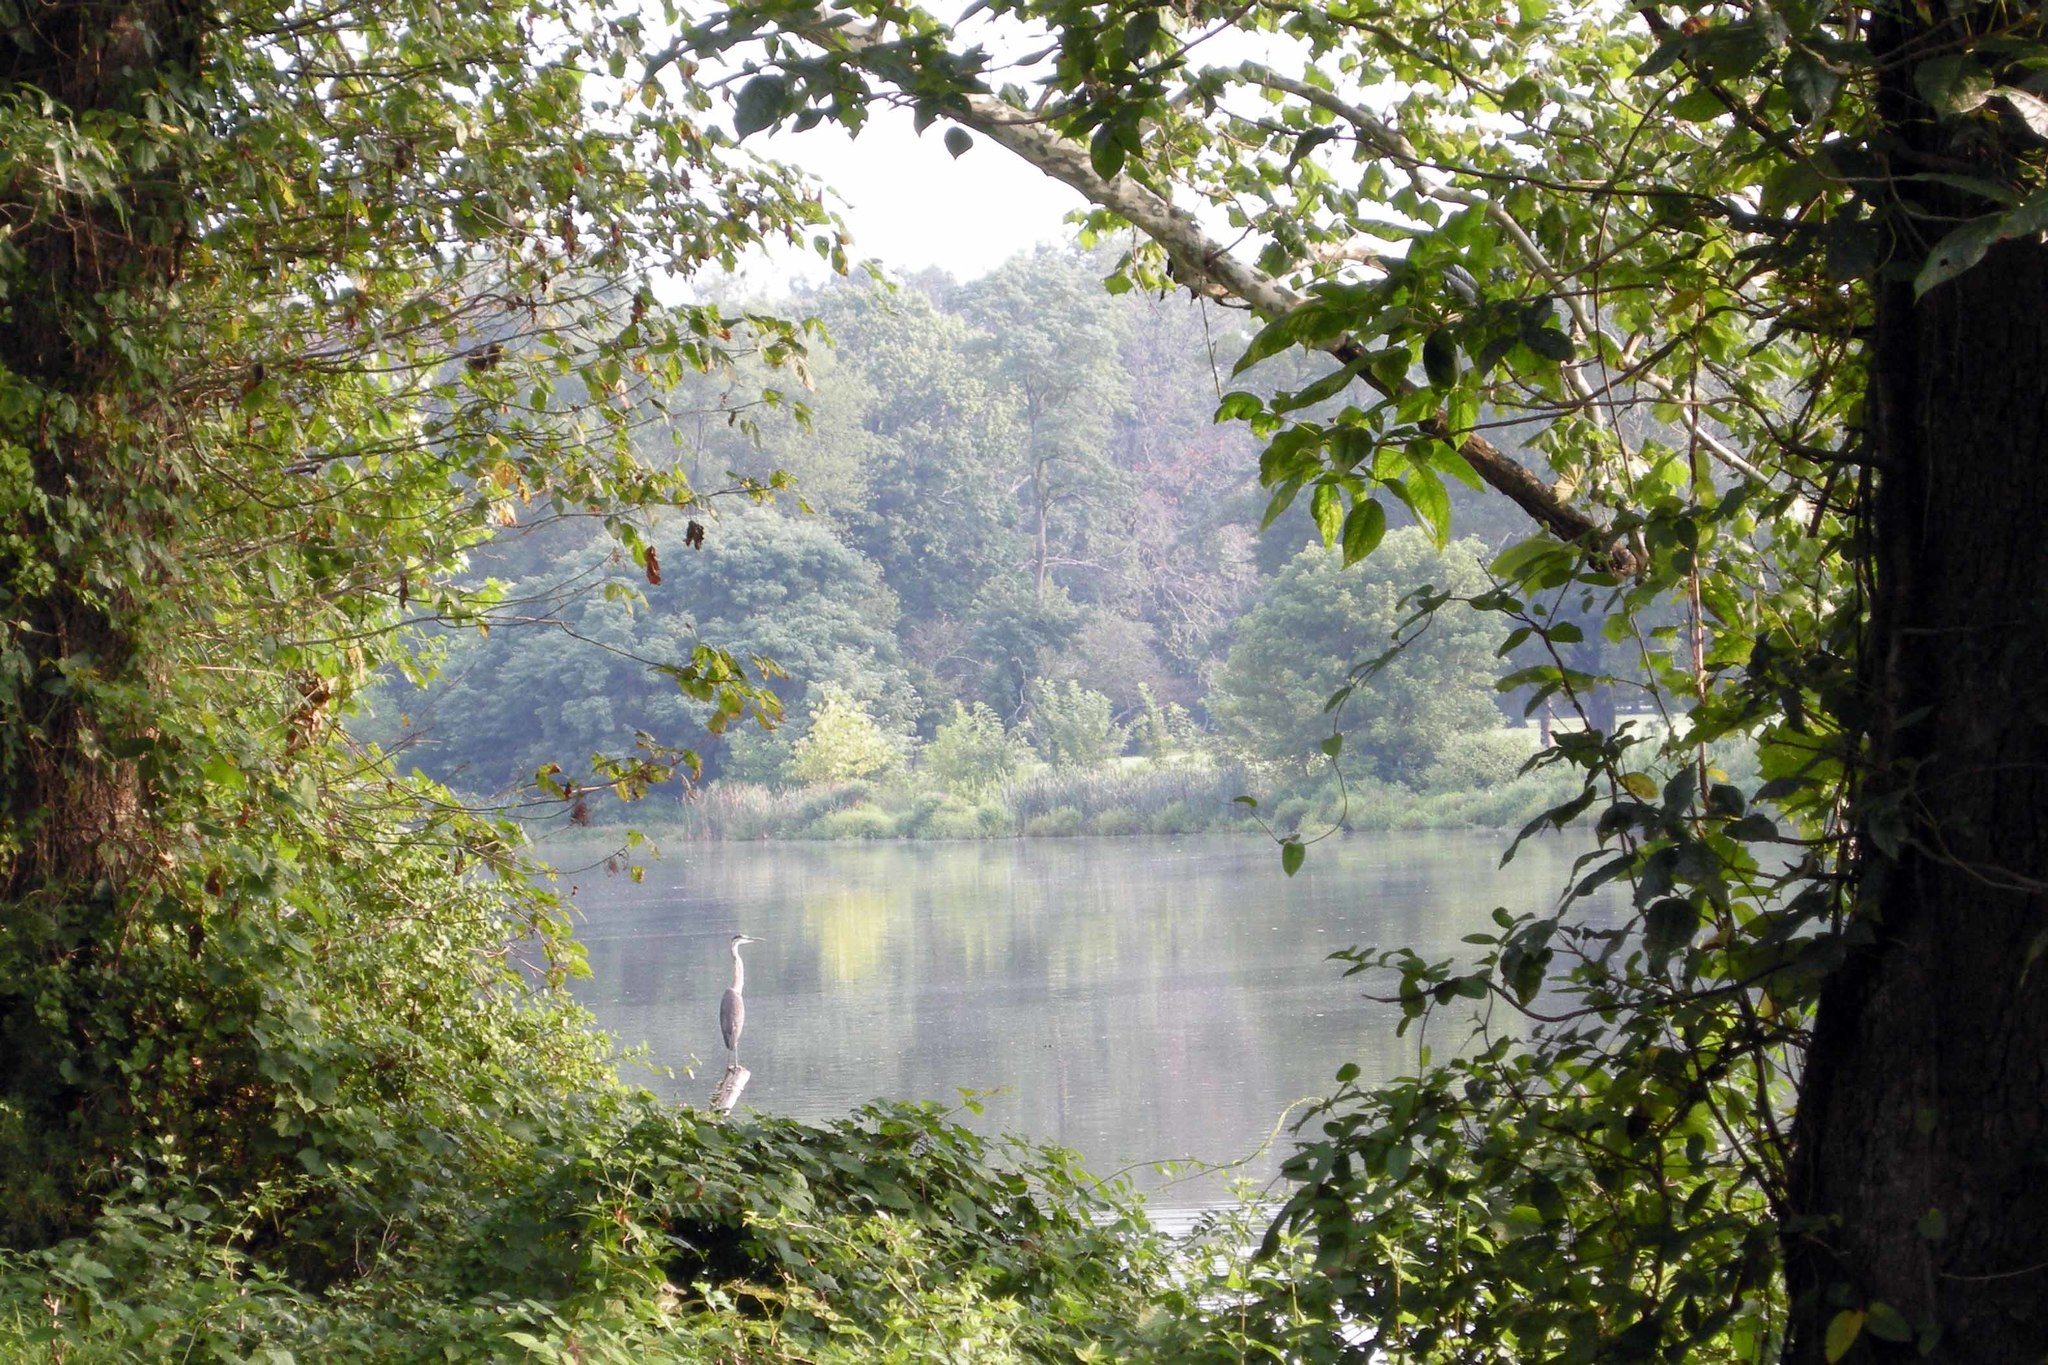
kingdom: Animalia
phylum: Chordata
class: Aves
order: Pelecaniformes
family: Ardeidae
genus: Ardea
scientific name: Ardea herodias
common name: Great blue heron
